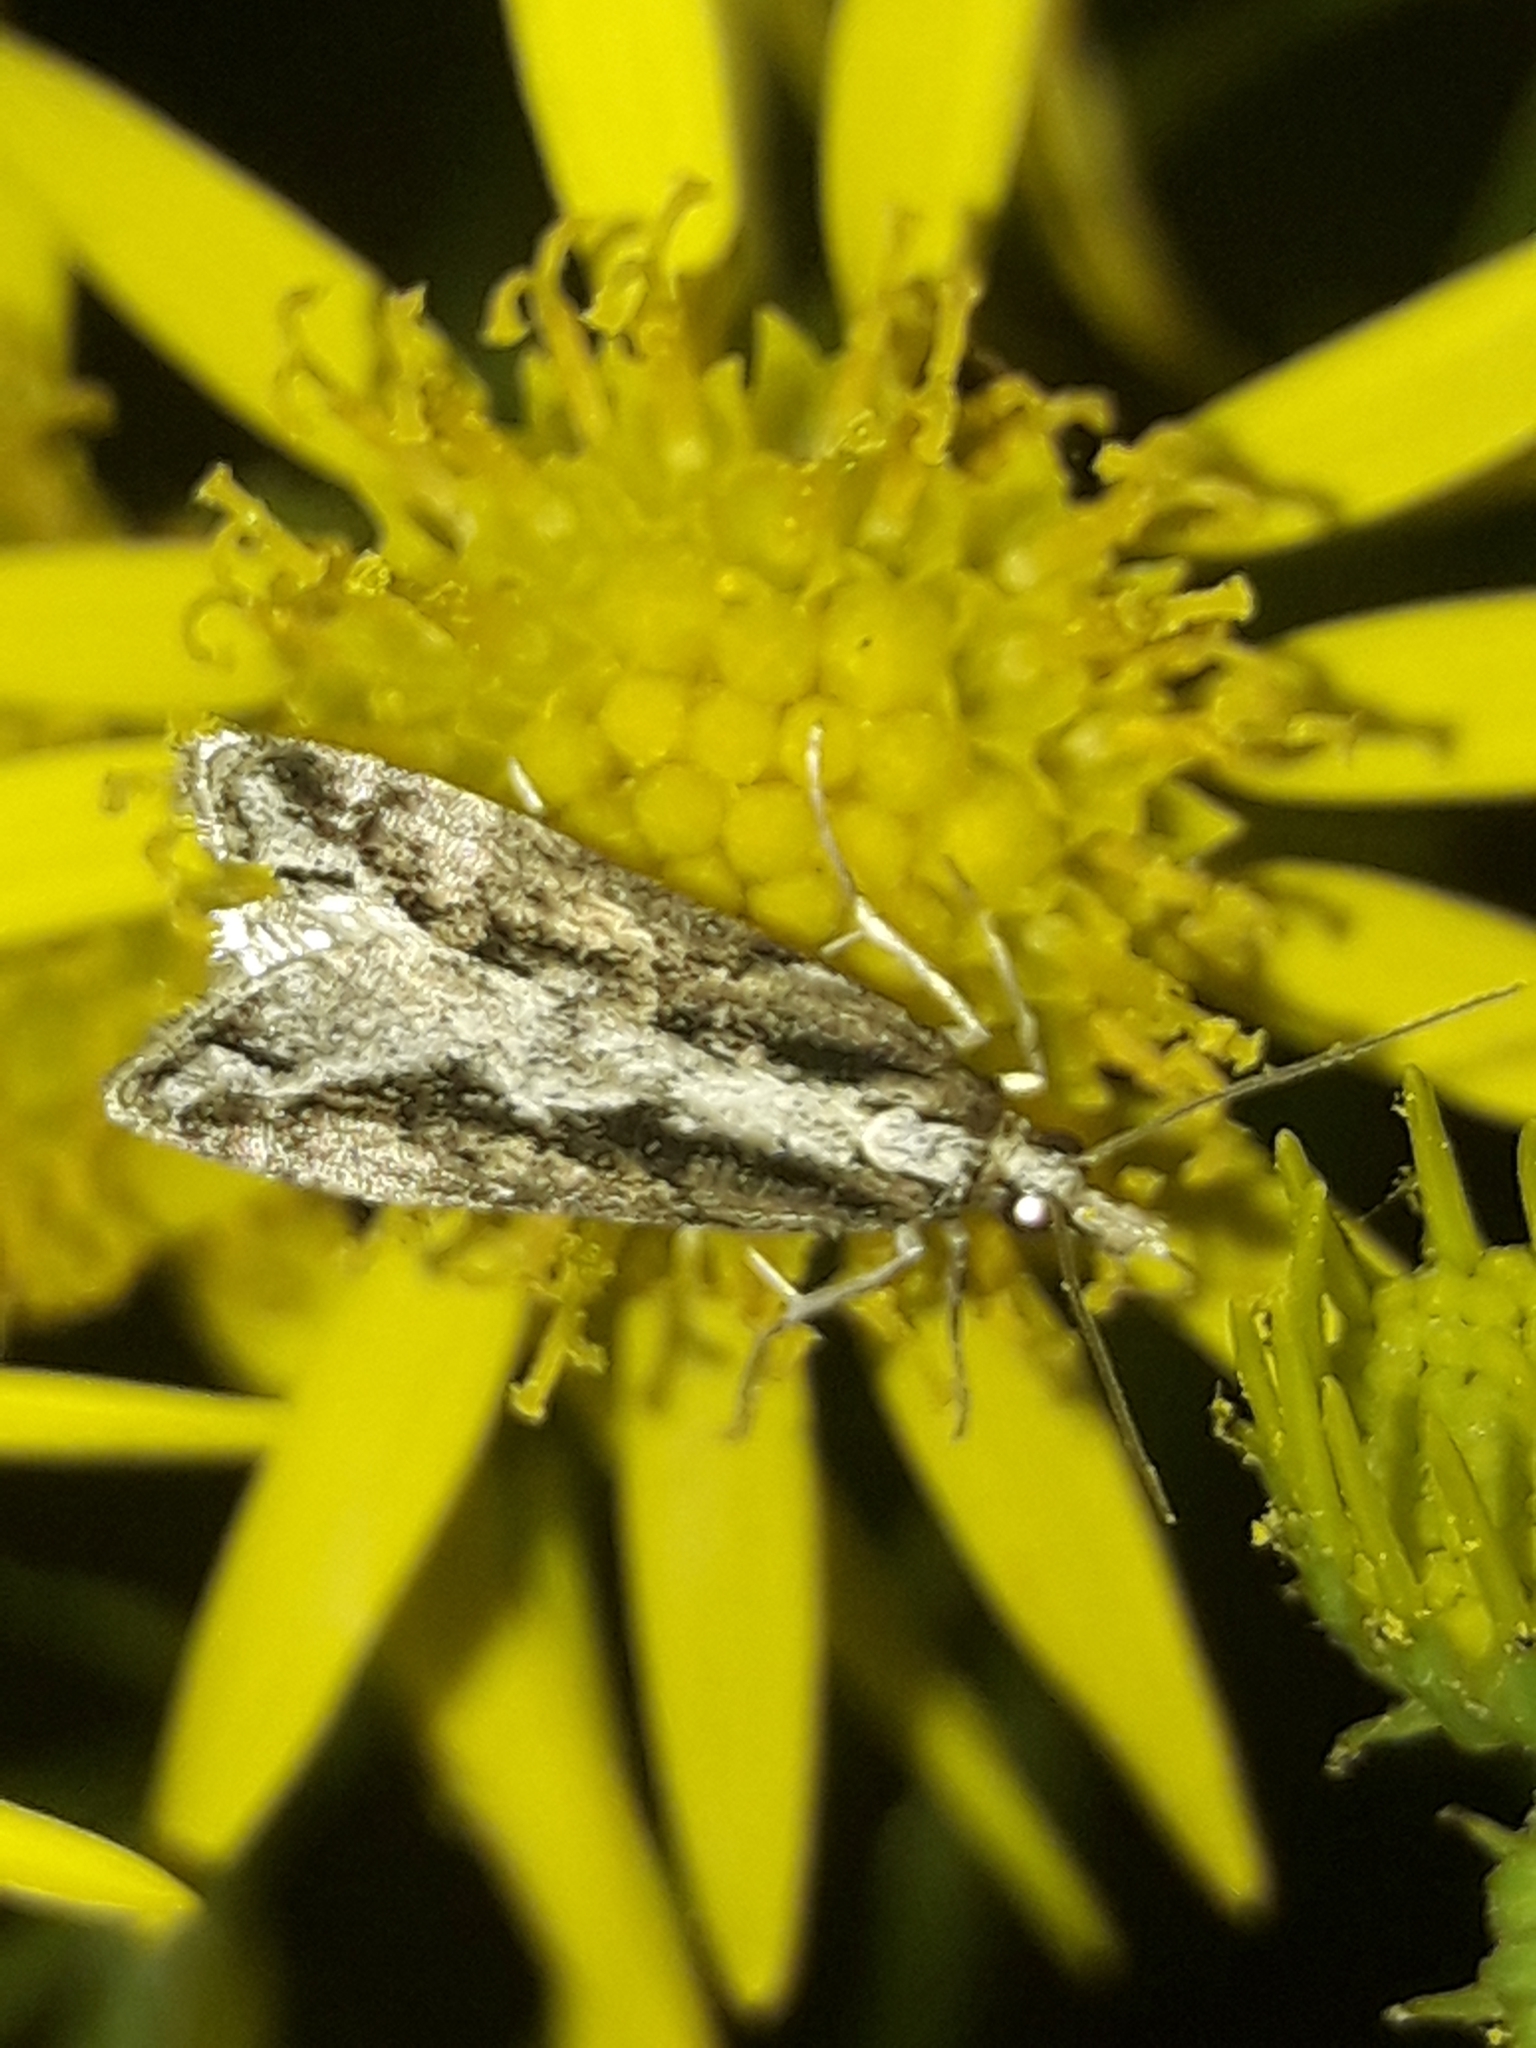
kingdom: Animalia
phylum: Arthropoda
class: Insecta
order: Lepidoptera
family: Crambidae
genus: Eudonia
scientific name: Eudonia steropaea
